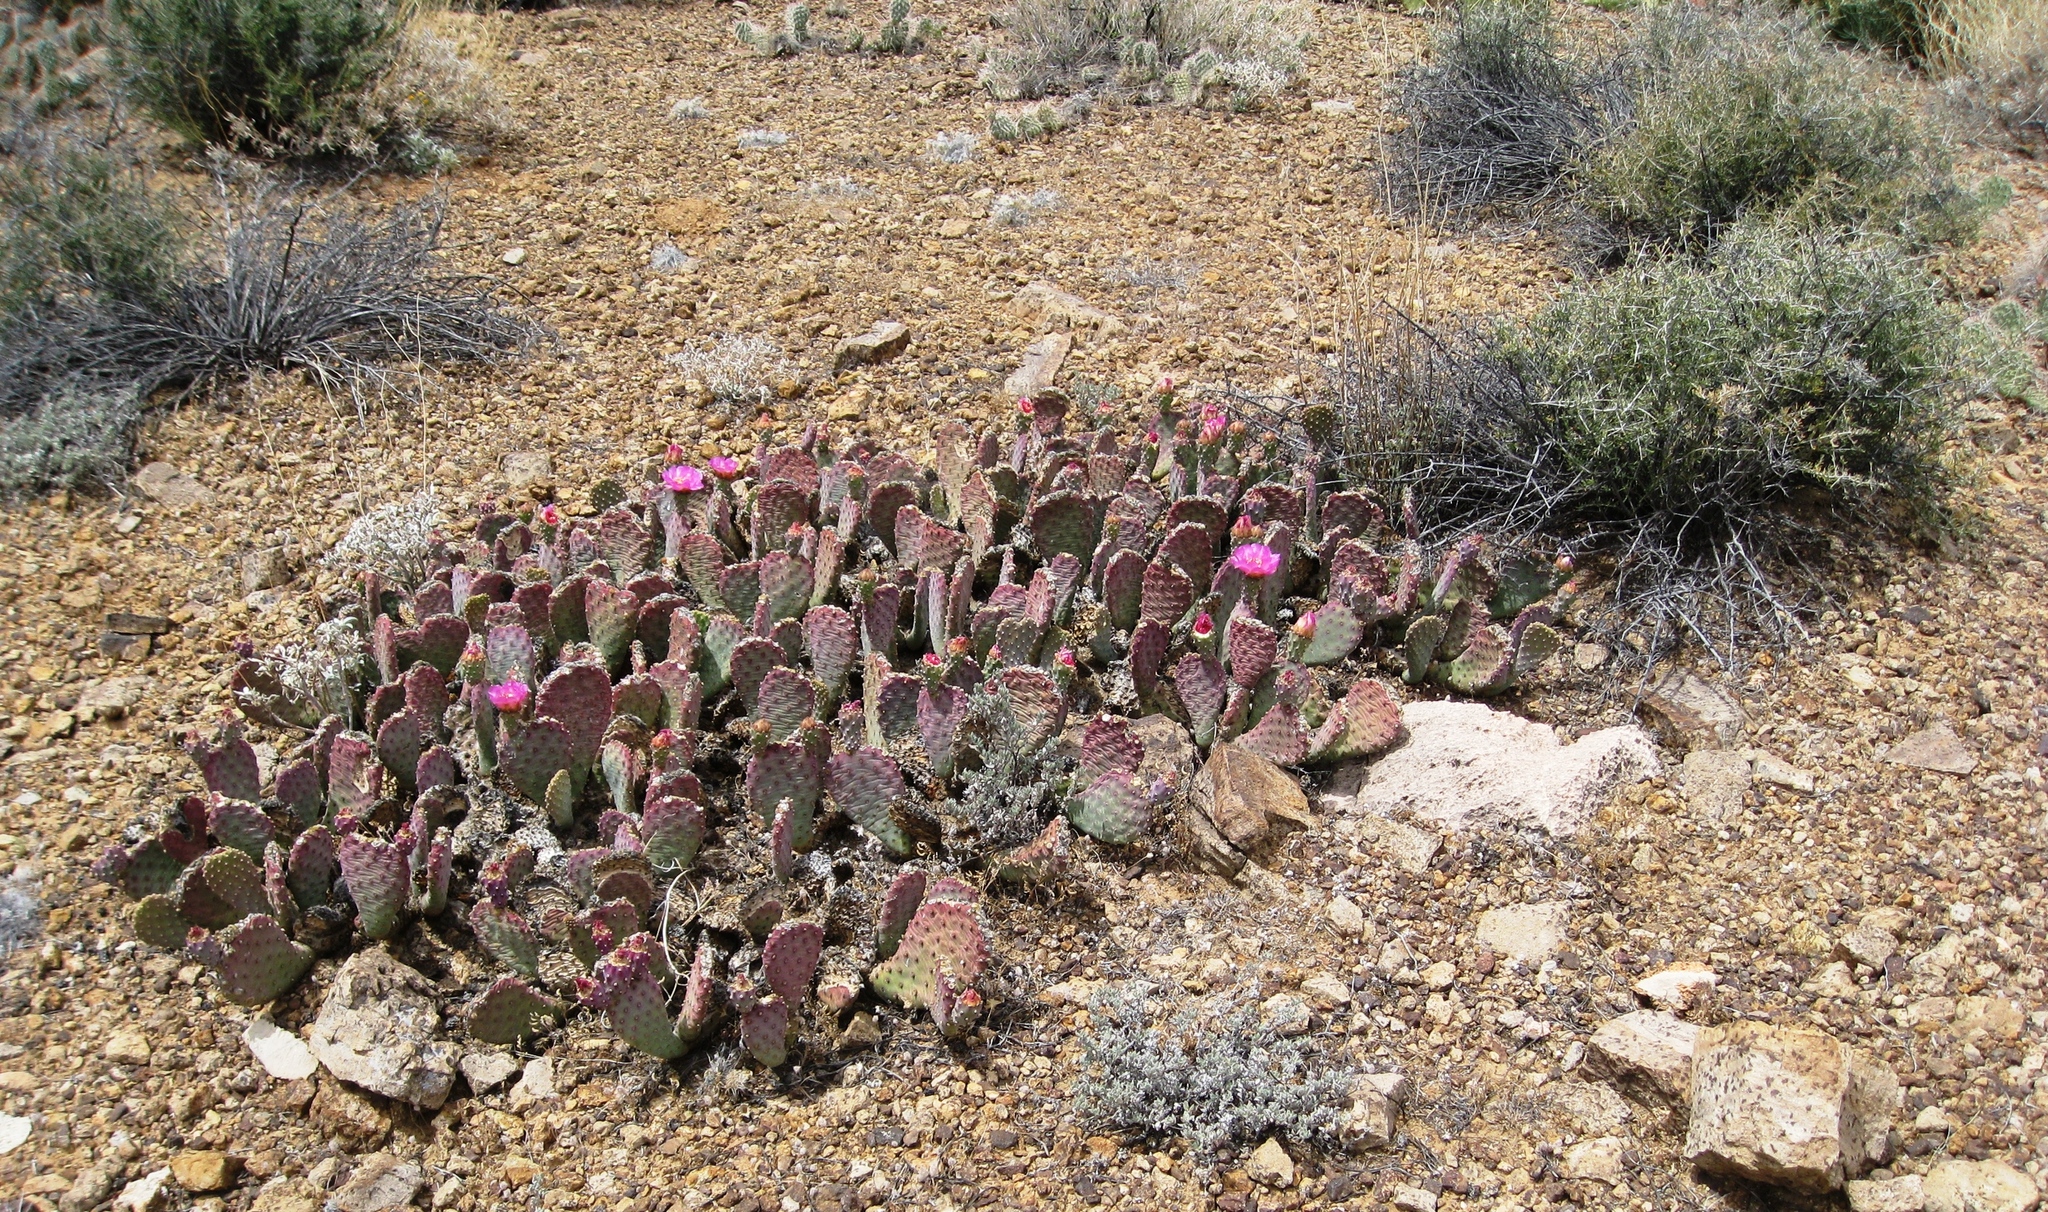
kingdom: Plantae
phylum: Tracheophyta
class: Magnoliopsida
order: Caryophyllales
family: Cactaceae
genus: Opuntia
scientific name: Opuntia basilaris
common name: Beavertail prickly-pear
